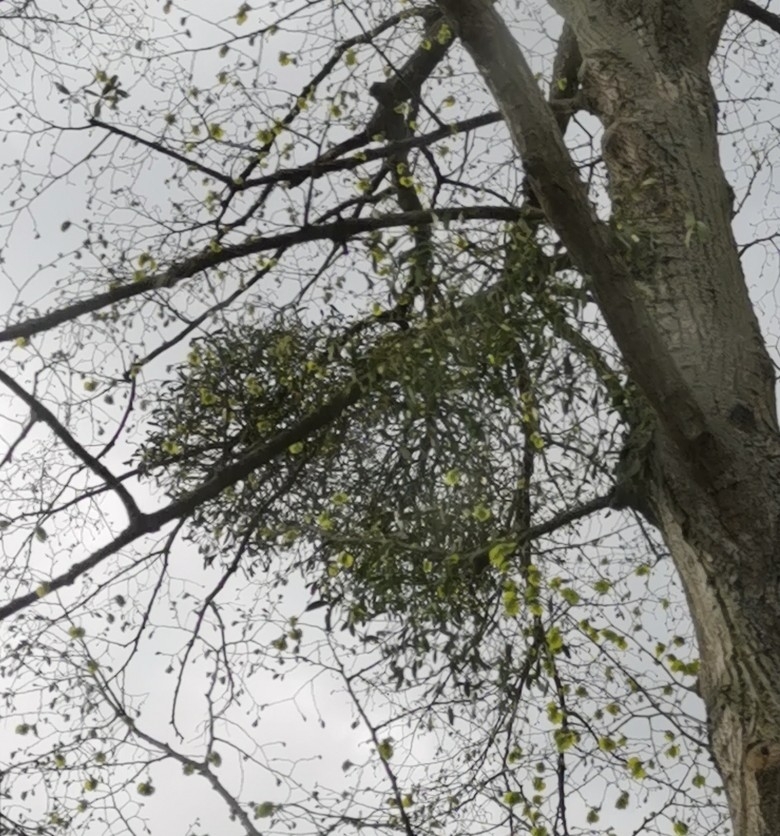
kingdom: Plantae
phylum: Tracheophyta
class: Magnoliopsida
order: Santalales
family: Viscaceae
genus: Viscum
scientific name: Viscum album
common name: Mistletoe
